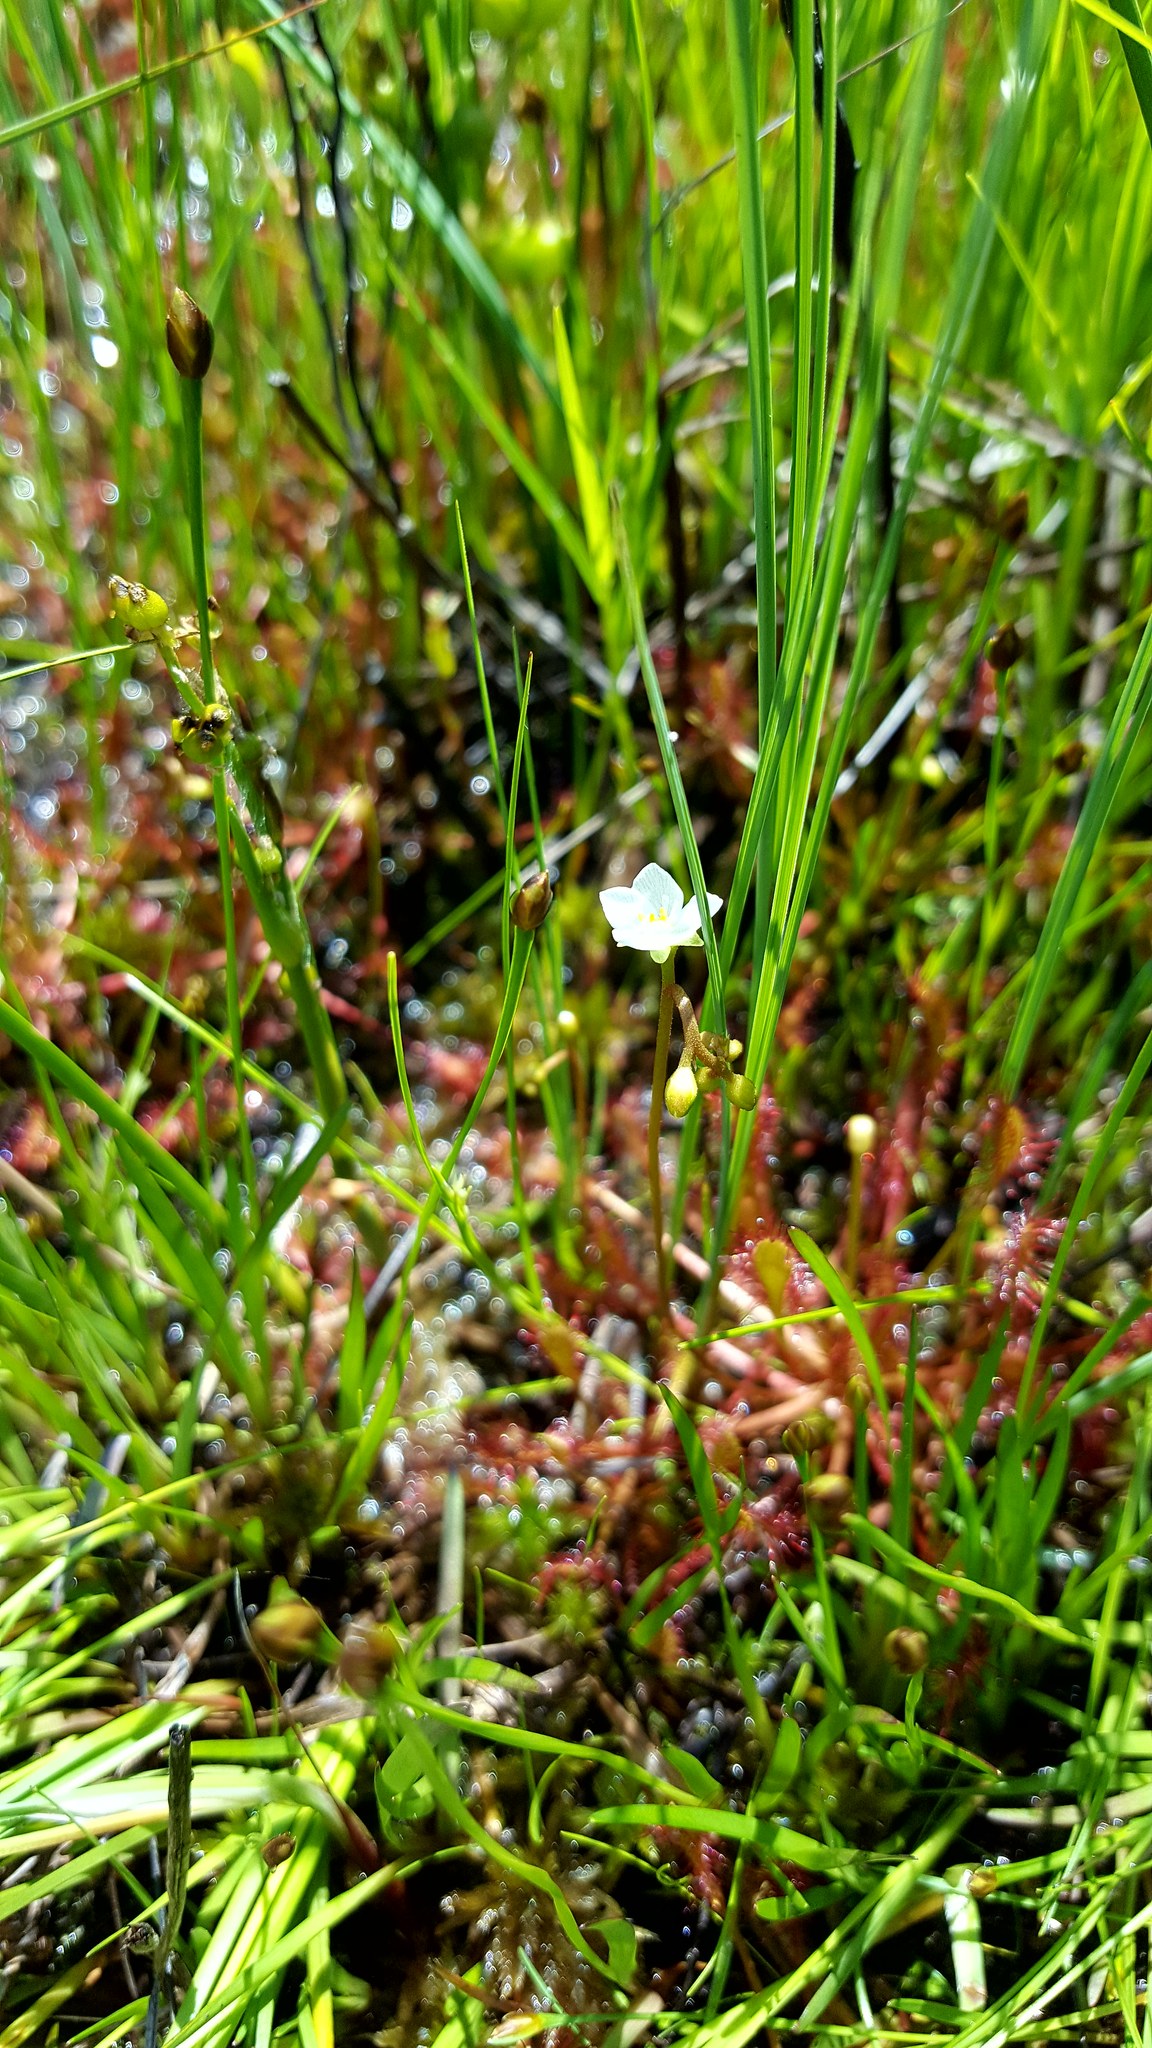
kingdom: Plantae
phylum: Tracheophyta
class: Magnoliopsida
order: Caryophyllales
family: Droseraceae
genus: Drosera
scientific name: Drosera intermedia
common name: Oblong-leaved sundew
